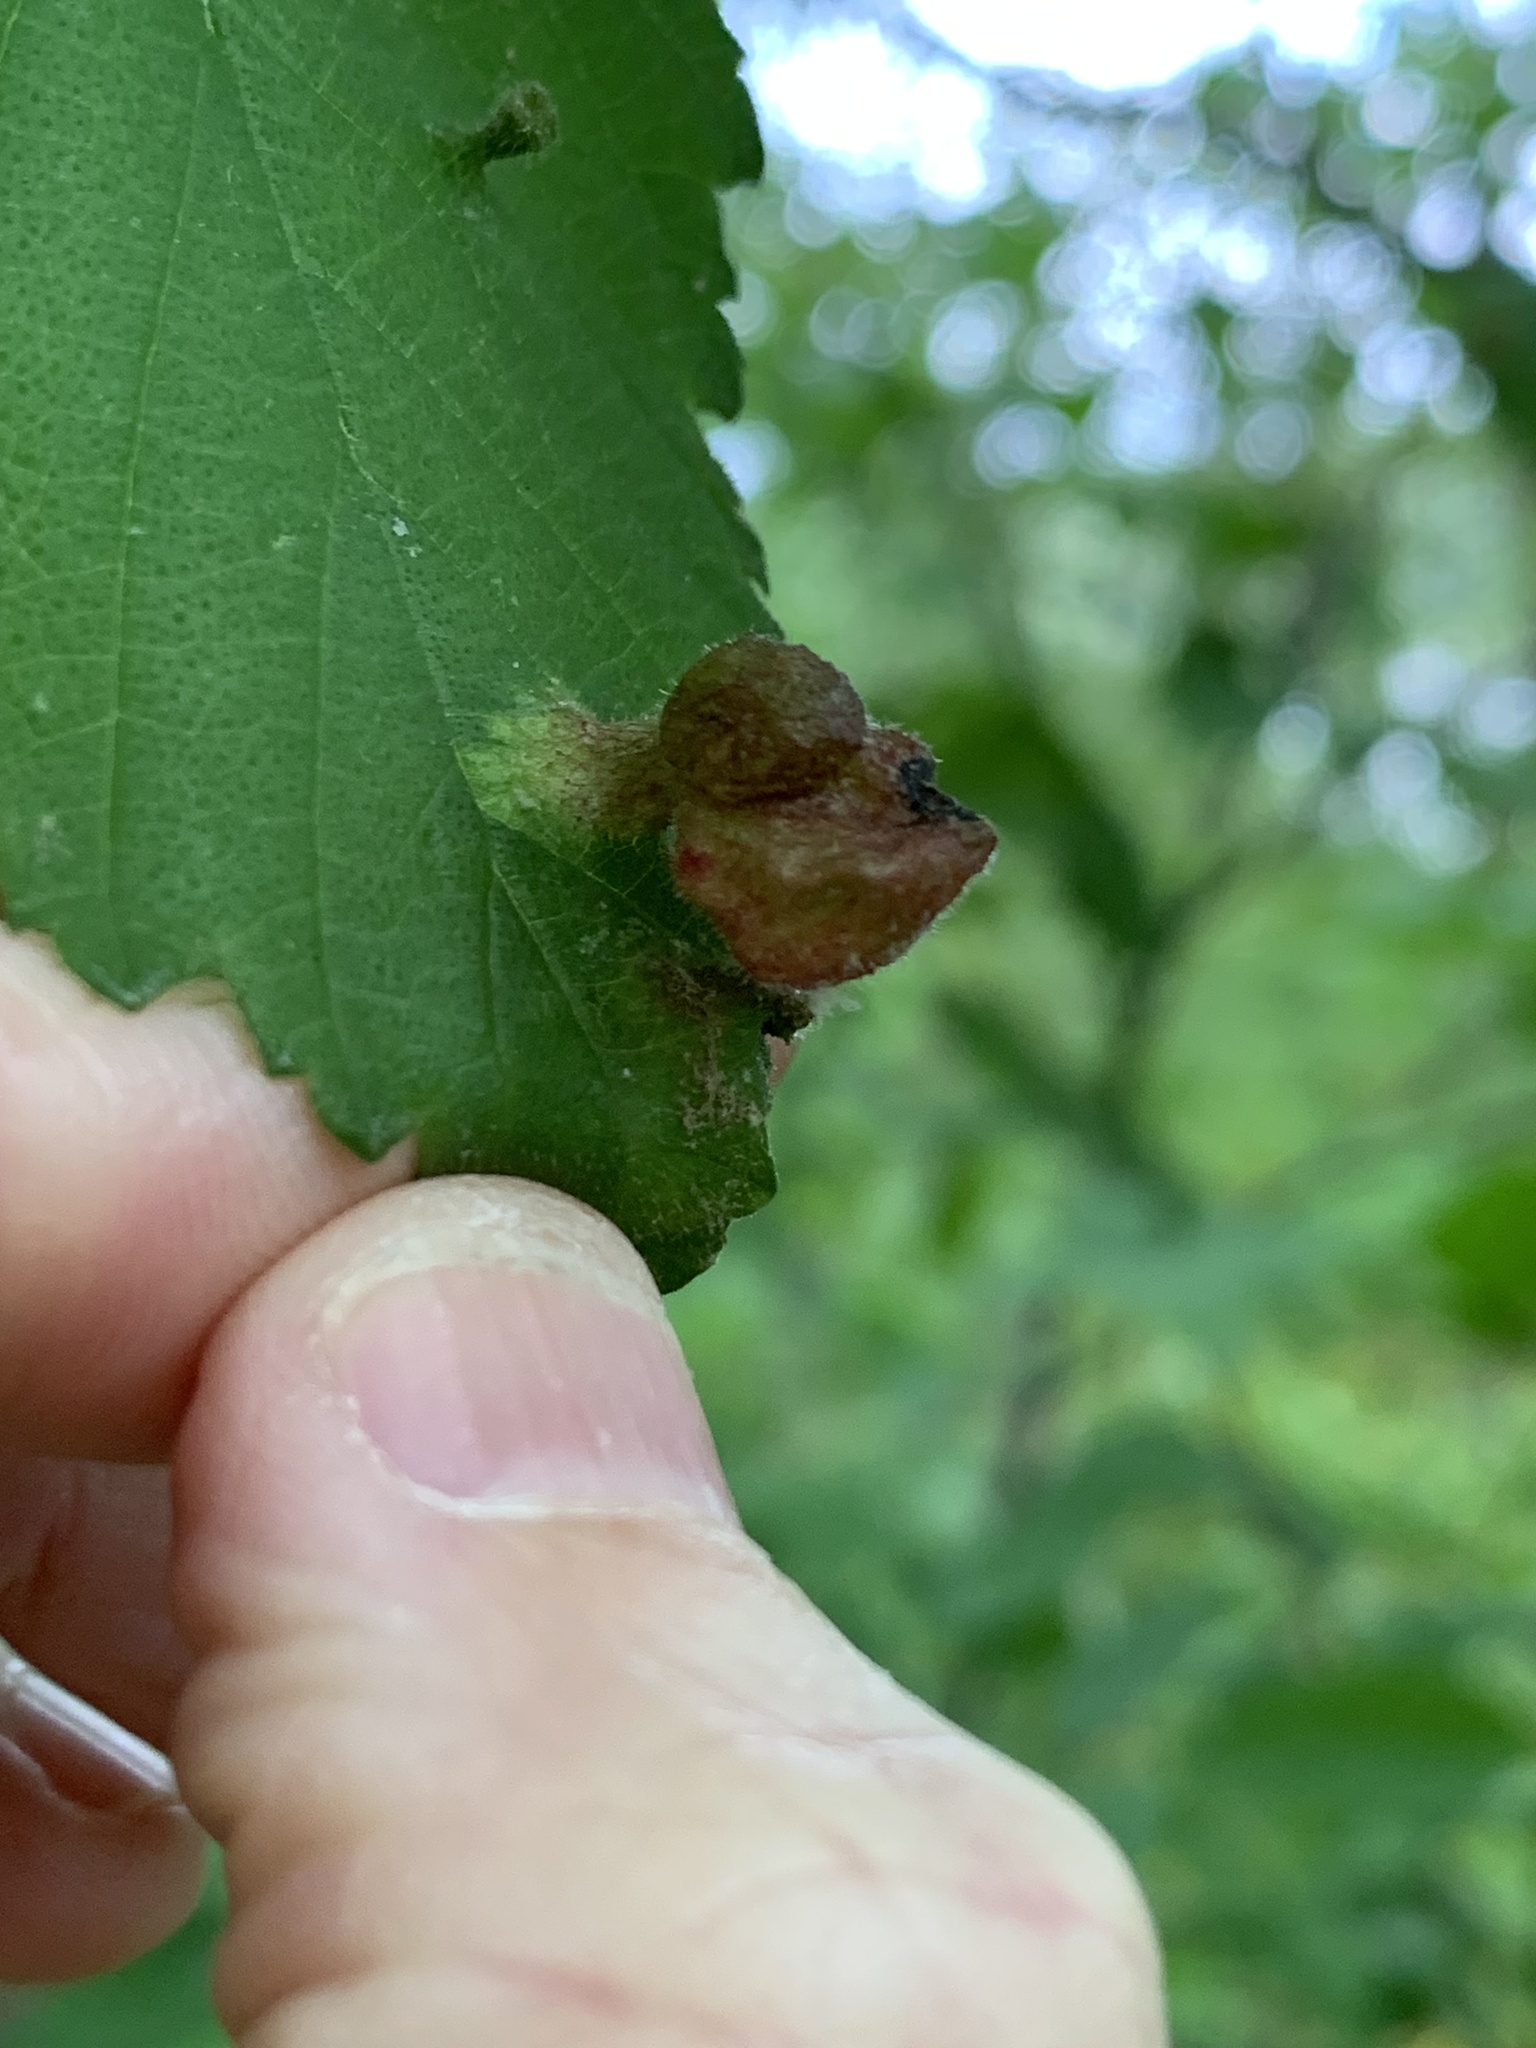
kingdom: Animalia
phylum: Arthropoda
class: Insecta
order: Hemiptera
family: Aphididae
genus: Tetraneura
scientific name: Tetraneura nigriabdominalis
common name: Aphid
